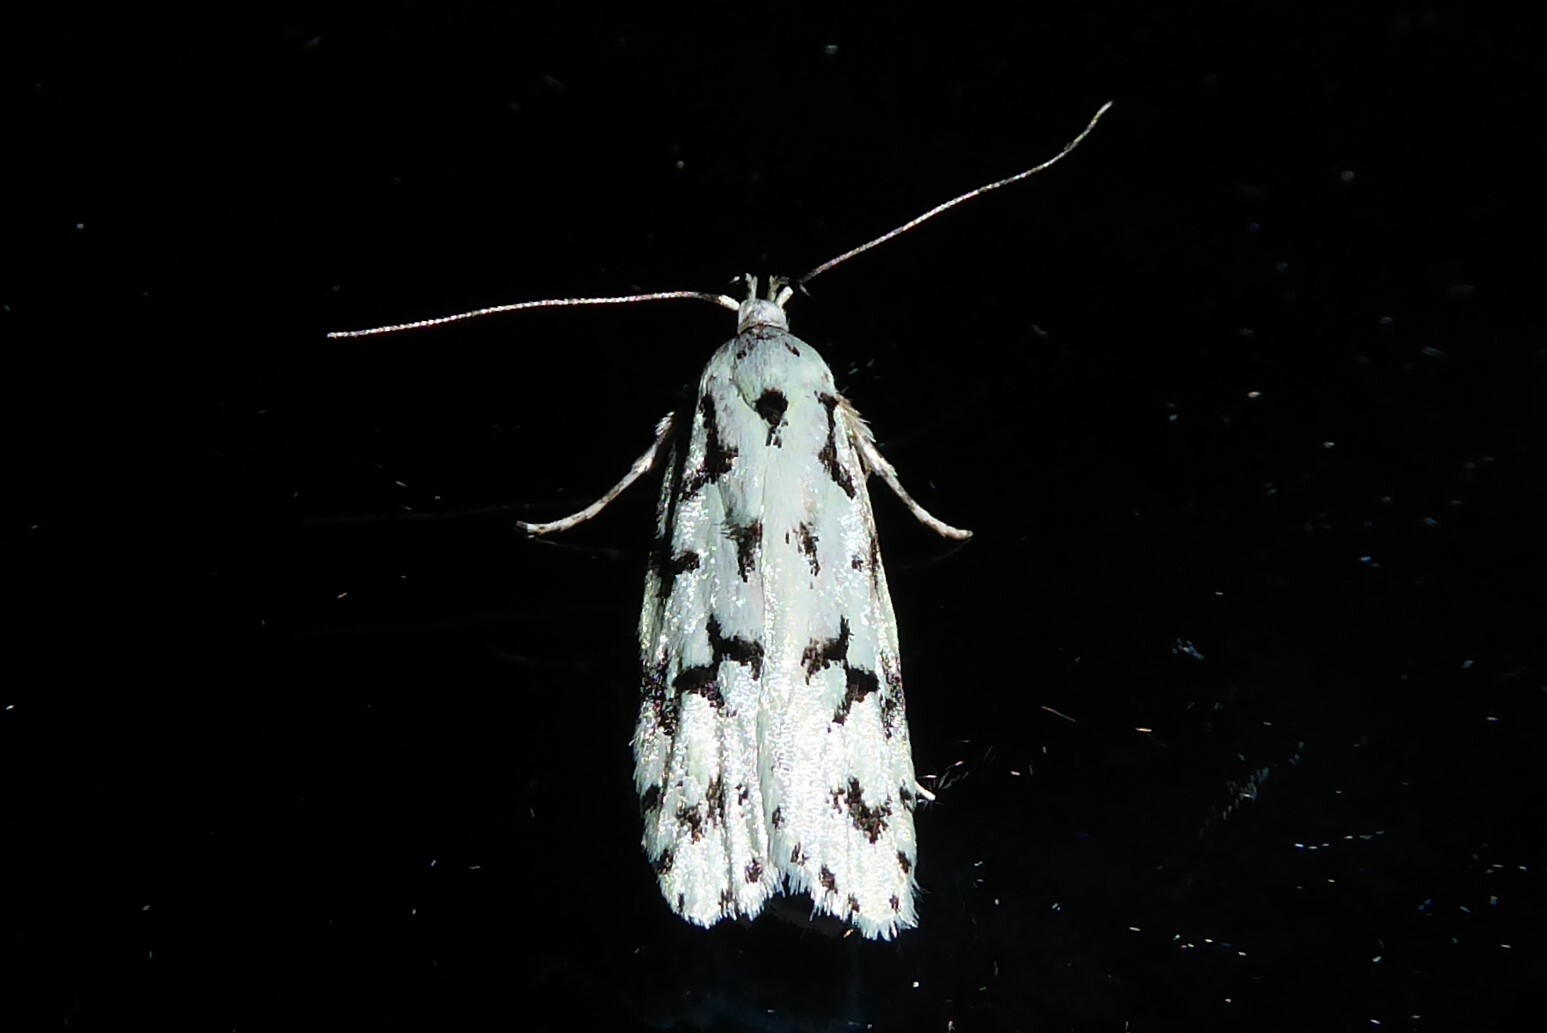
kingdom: Animalia
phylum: Arthropoda
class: Insecta
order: Lepidoptera
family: Oecophoridae
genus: Izatha
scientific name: Izatha huttoni
